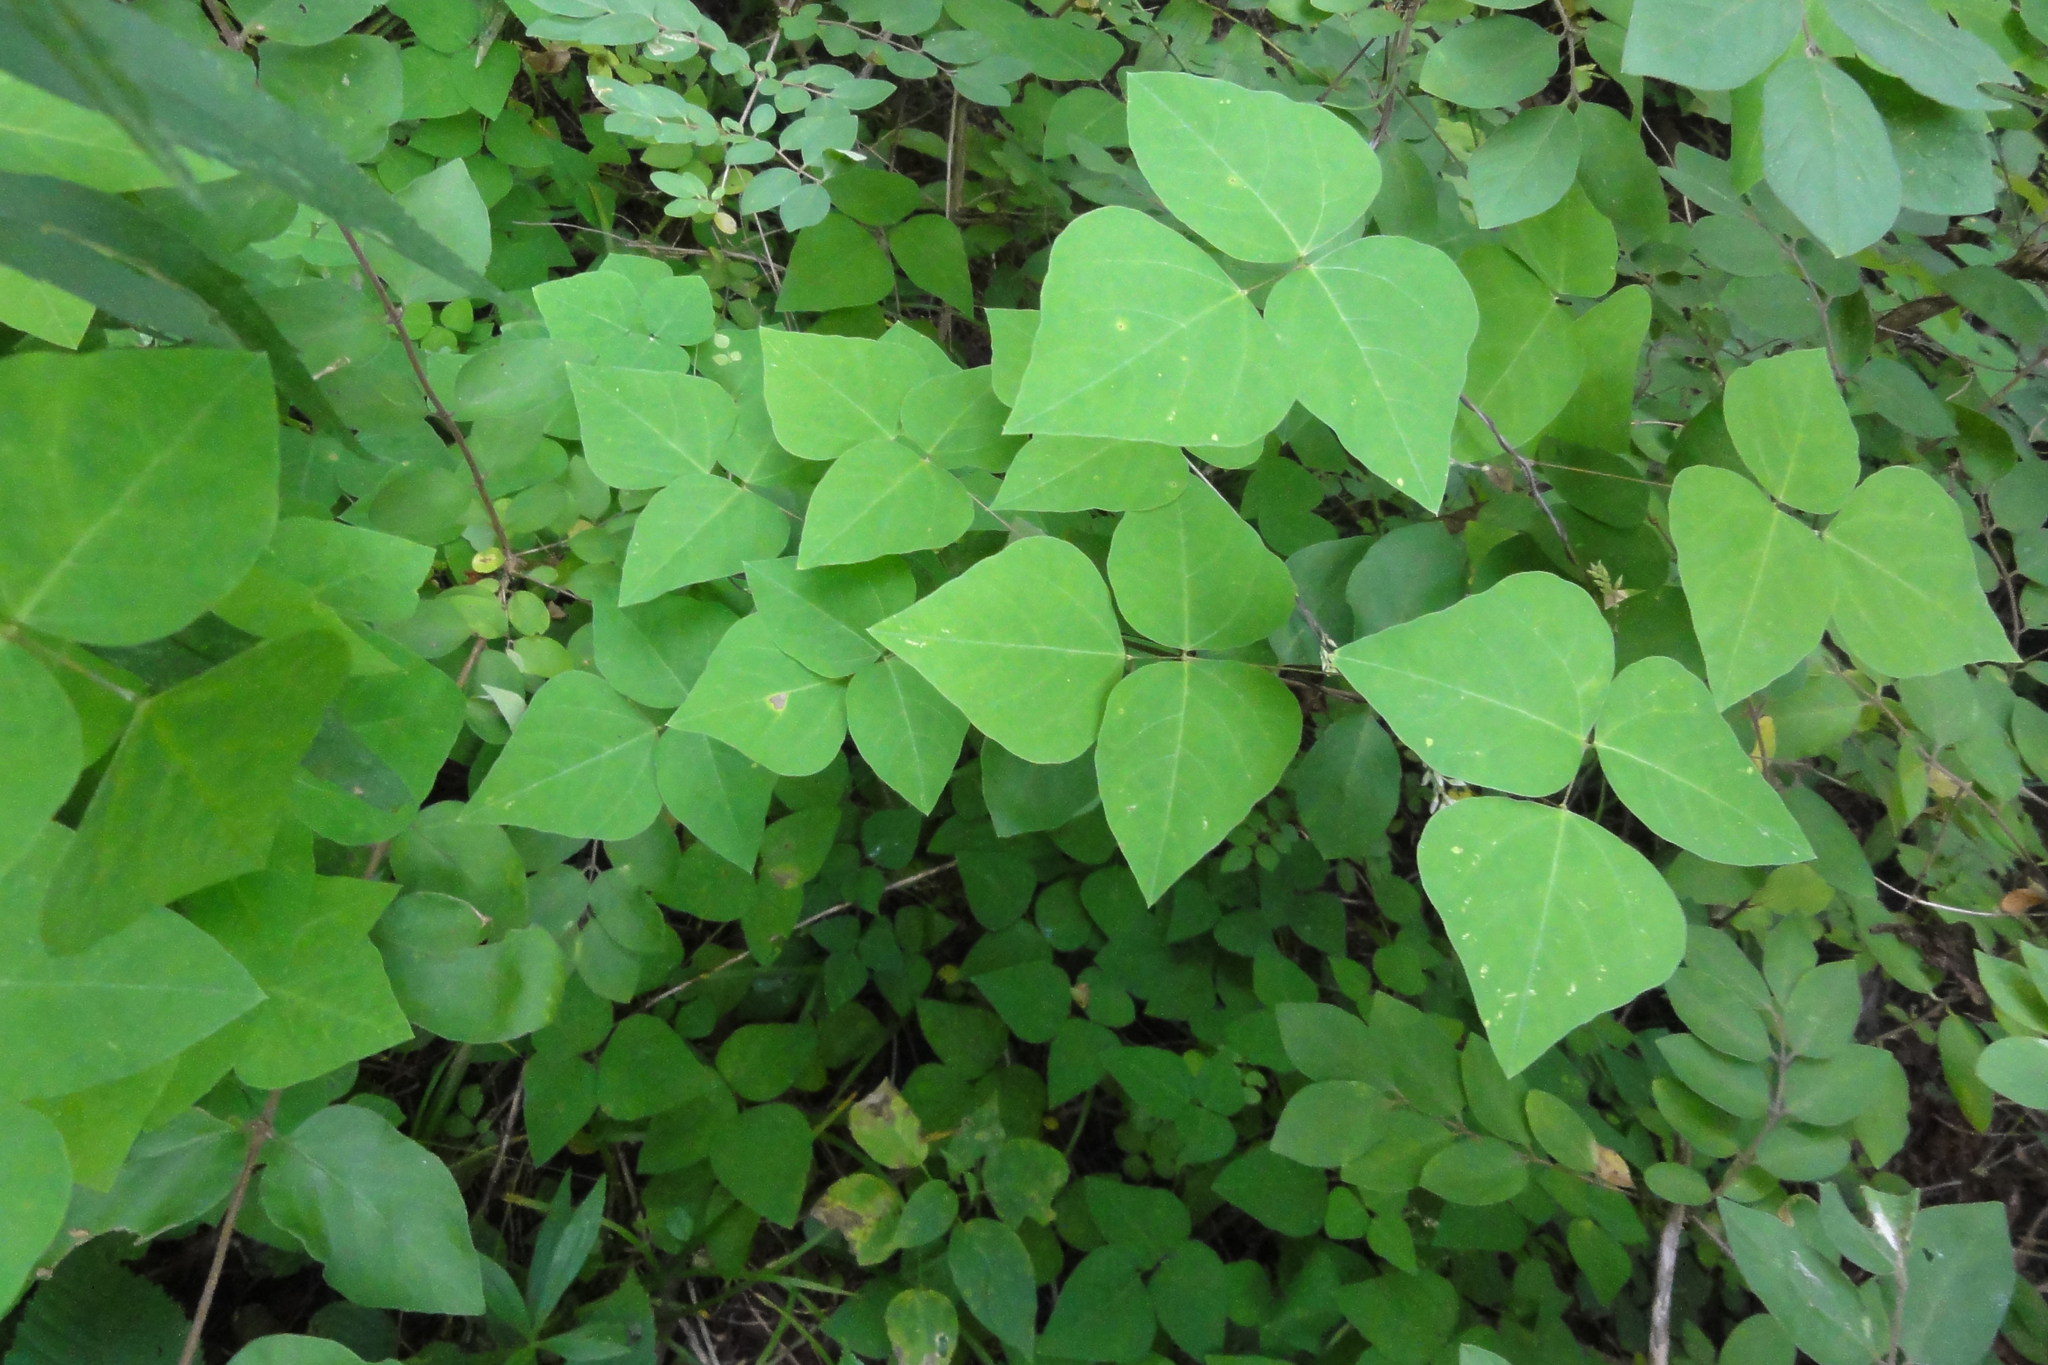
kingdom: Plantae
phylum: Tracheophyta
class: Magnoliopsida
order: Fabales
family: Fabaceae
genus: Amphicarpaea
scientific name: Amphicarpaea bracteata
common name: American hog peanut
